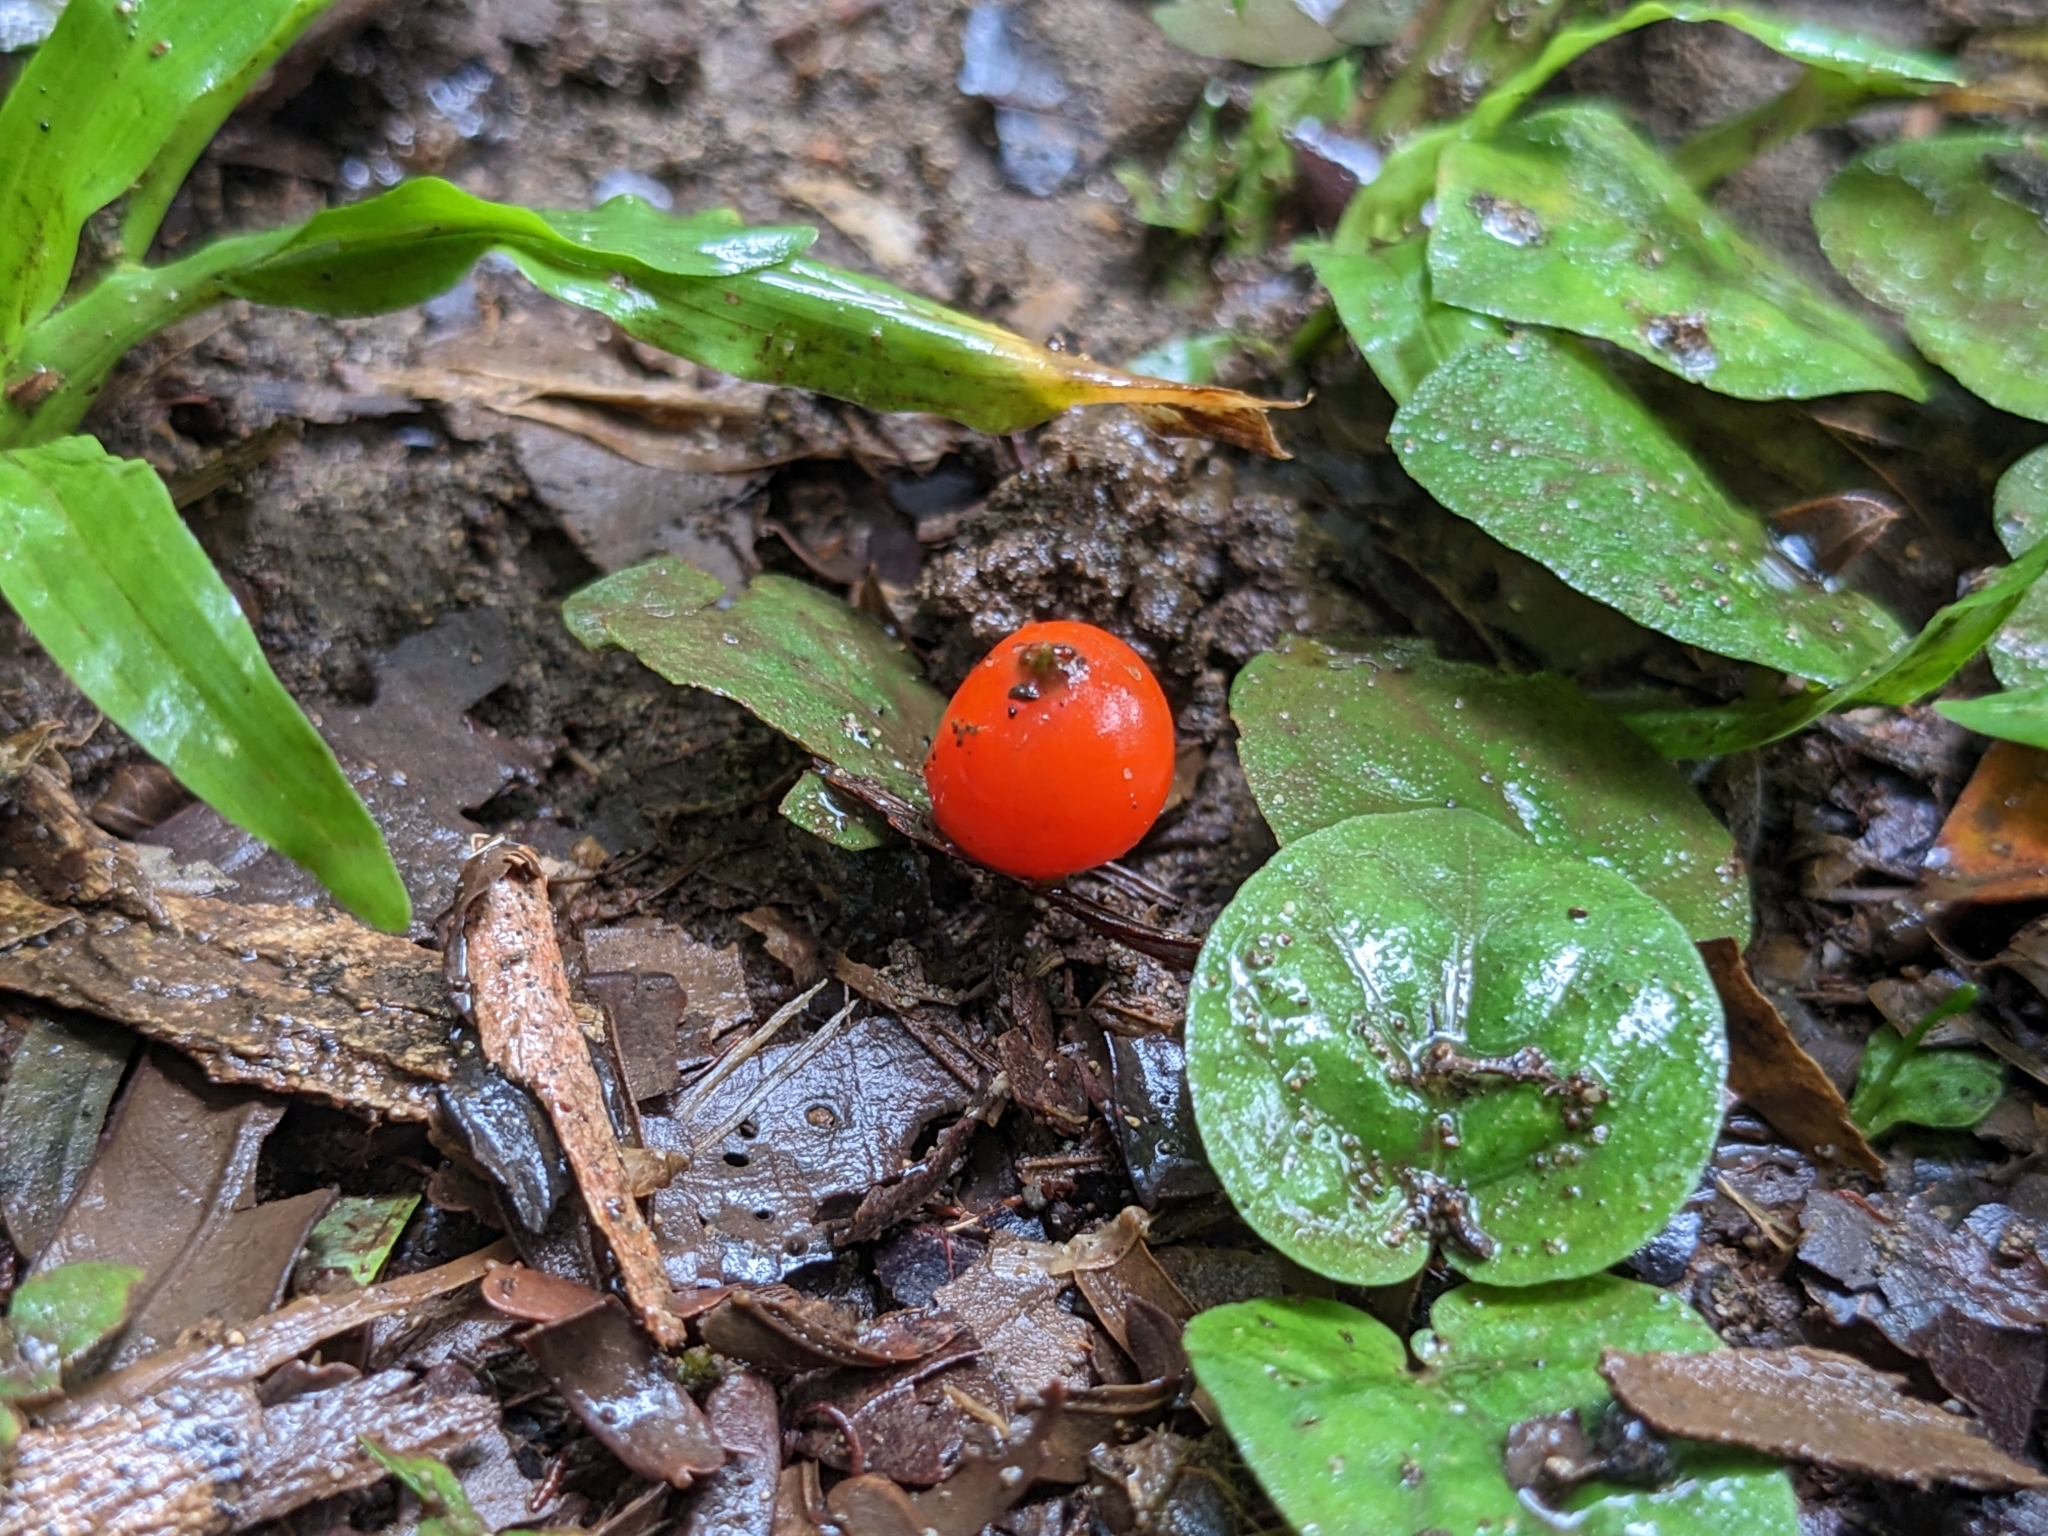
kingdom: Plantae
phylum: Tracheophyta
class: Magnoliopsida
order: Gentianales
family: Rubiaceae
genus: Geophila
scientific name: Geophila repens
